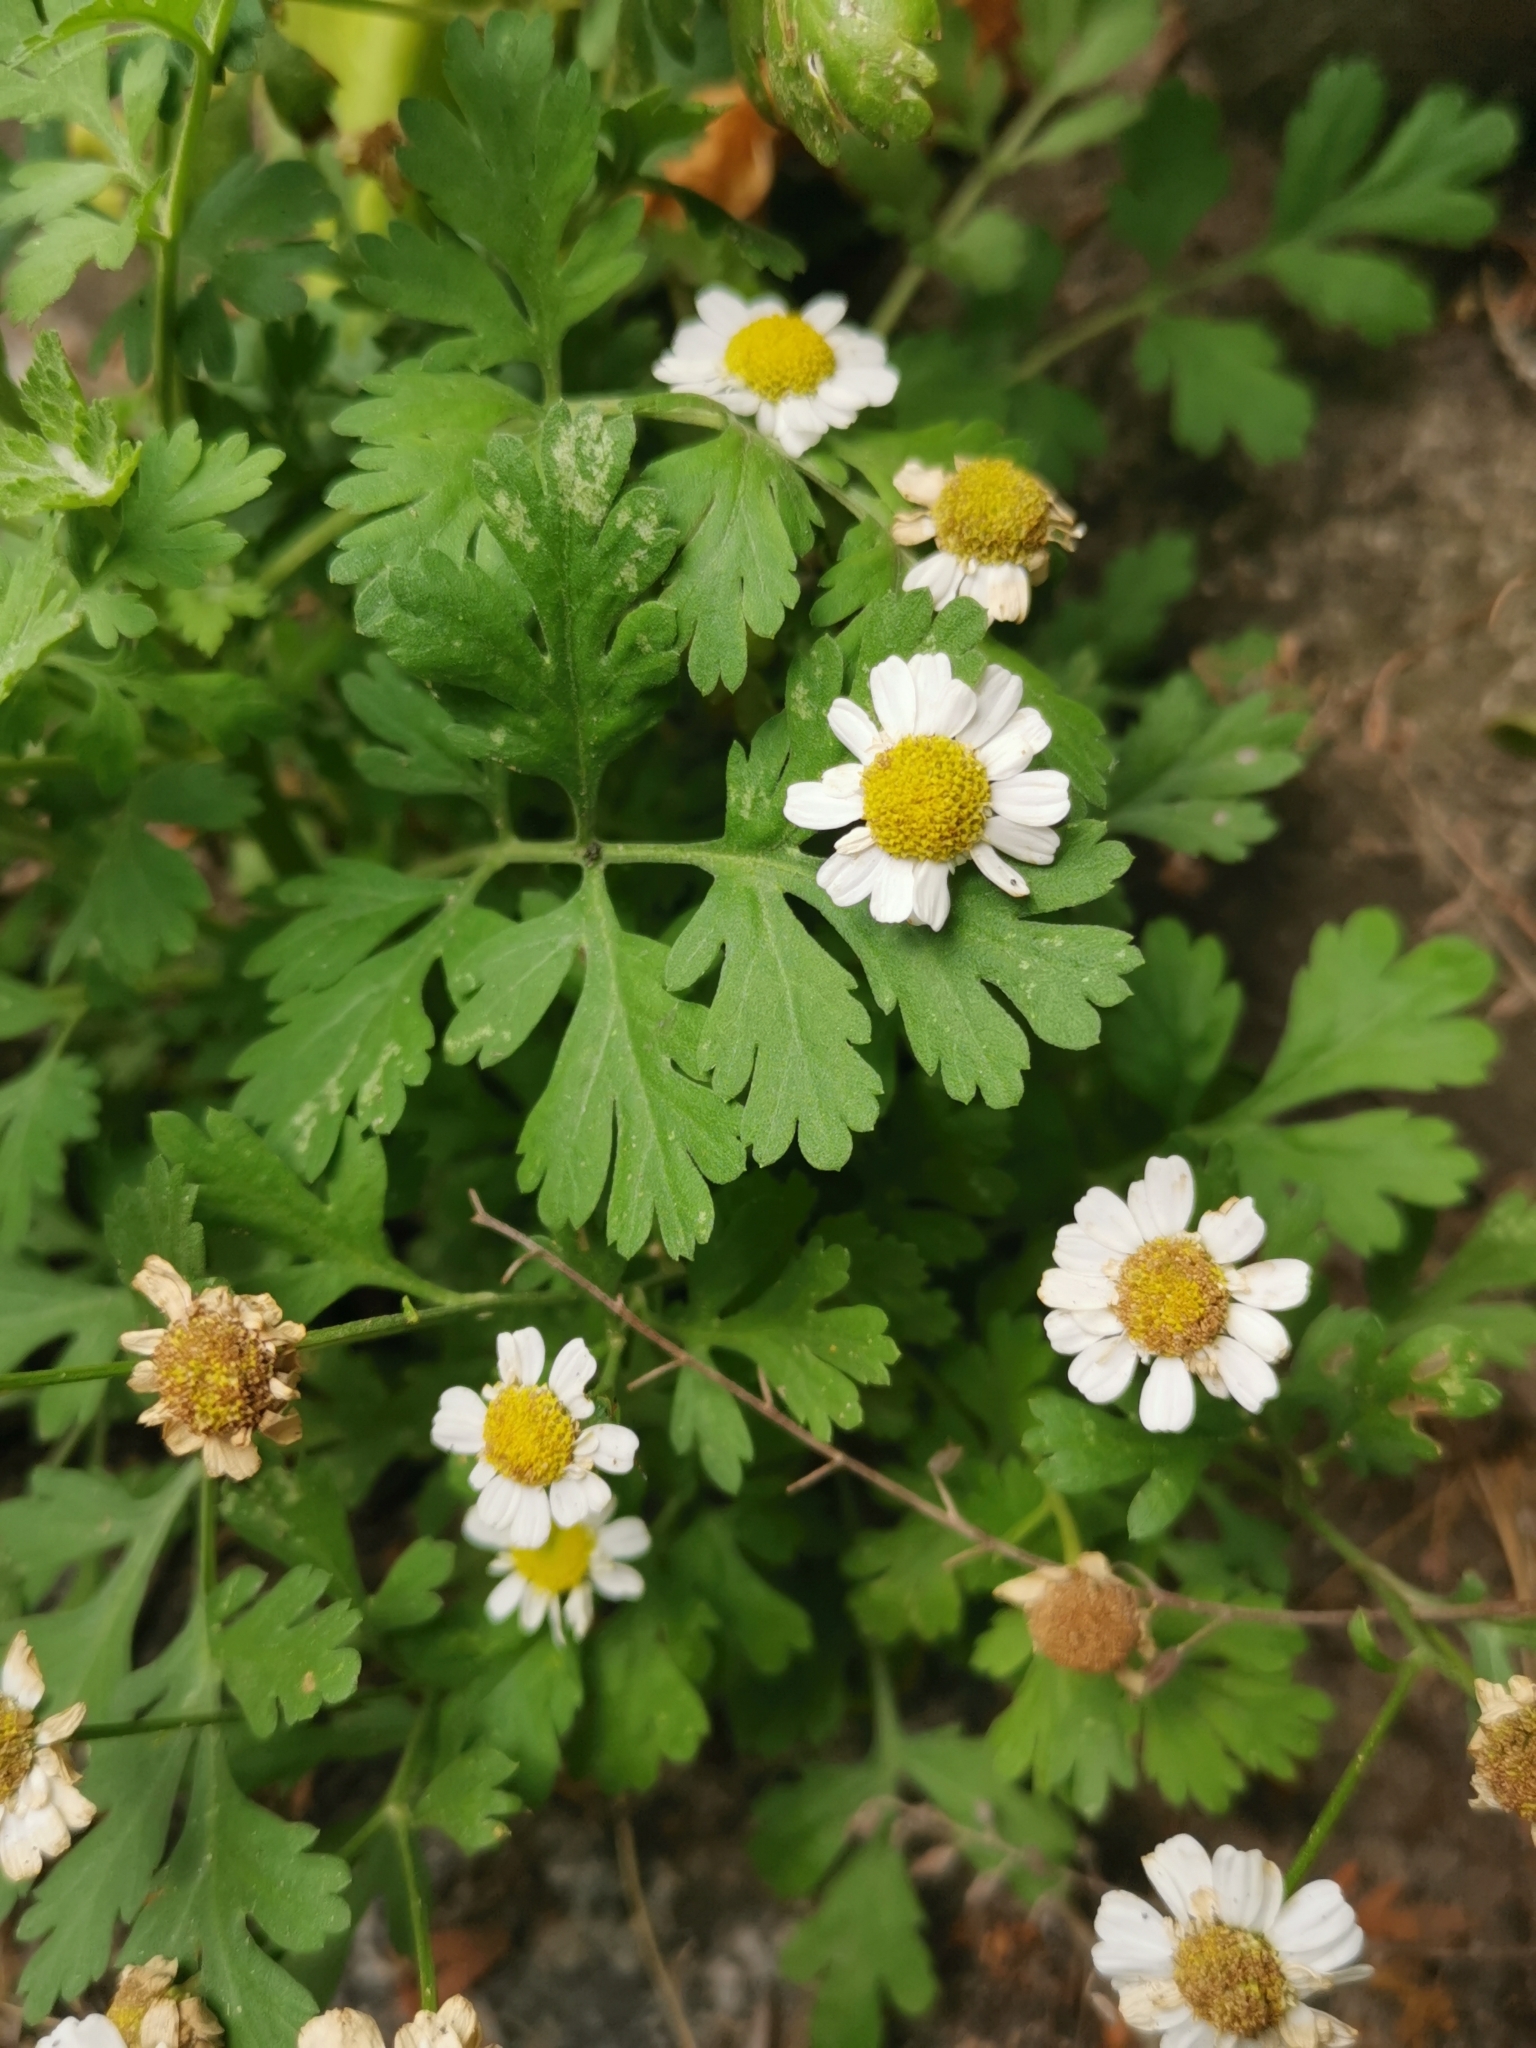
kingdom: Plantae
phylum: Tracheophyta
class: Magnoliopsida
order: Asterales
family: Asteraceae
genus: Tanacetum
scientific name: Tanacetum parthenium
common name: Feverfew
